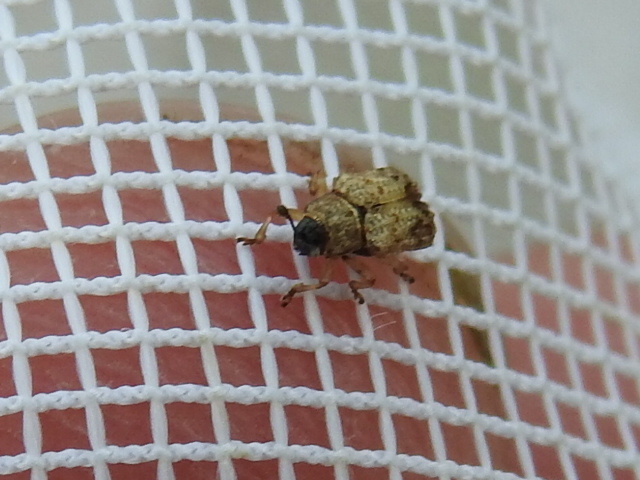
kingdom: Animalia
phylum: Arthropoda
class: Insecta
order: Coleoptera
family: Chrysomelidae
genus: Brachycoryna
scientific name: Brachycoryna pumila
